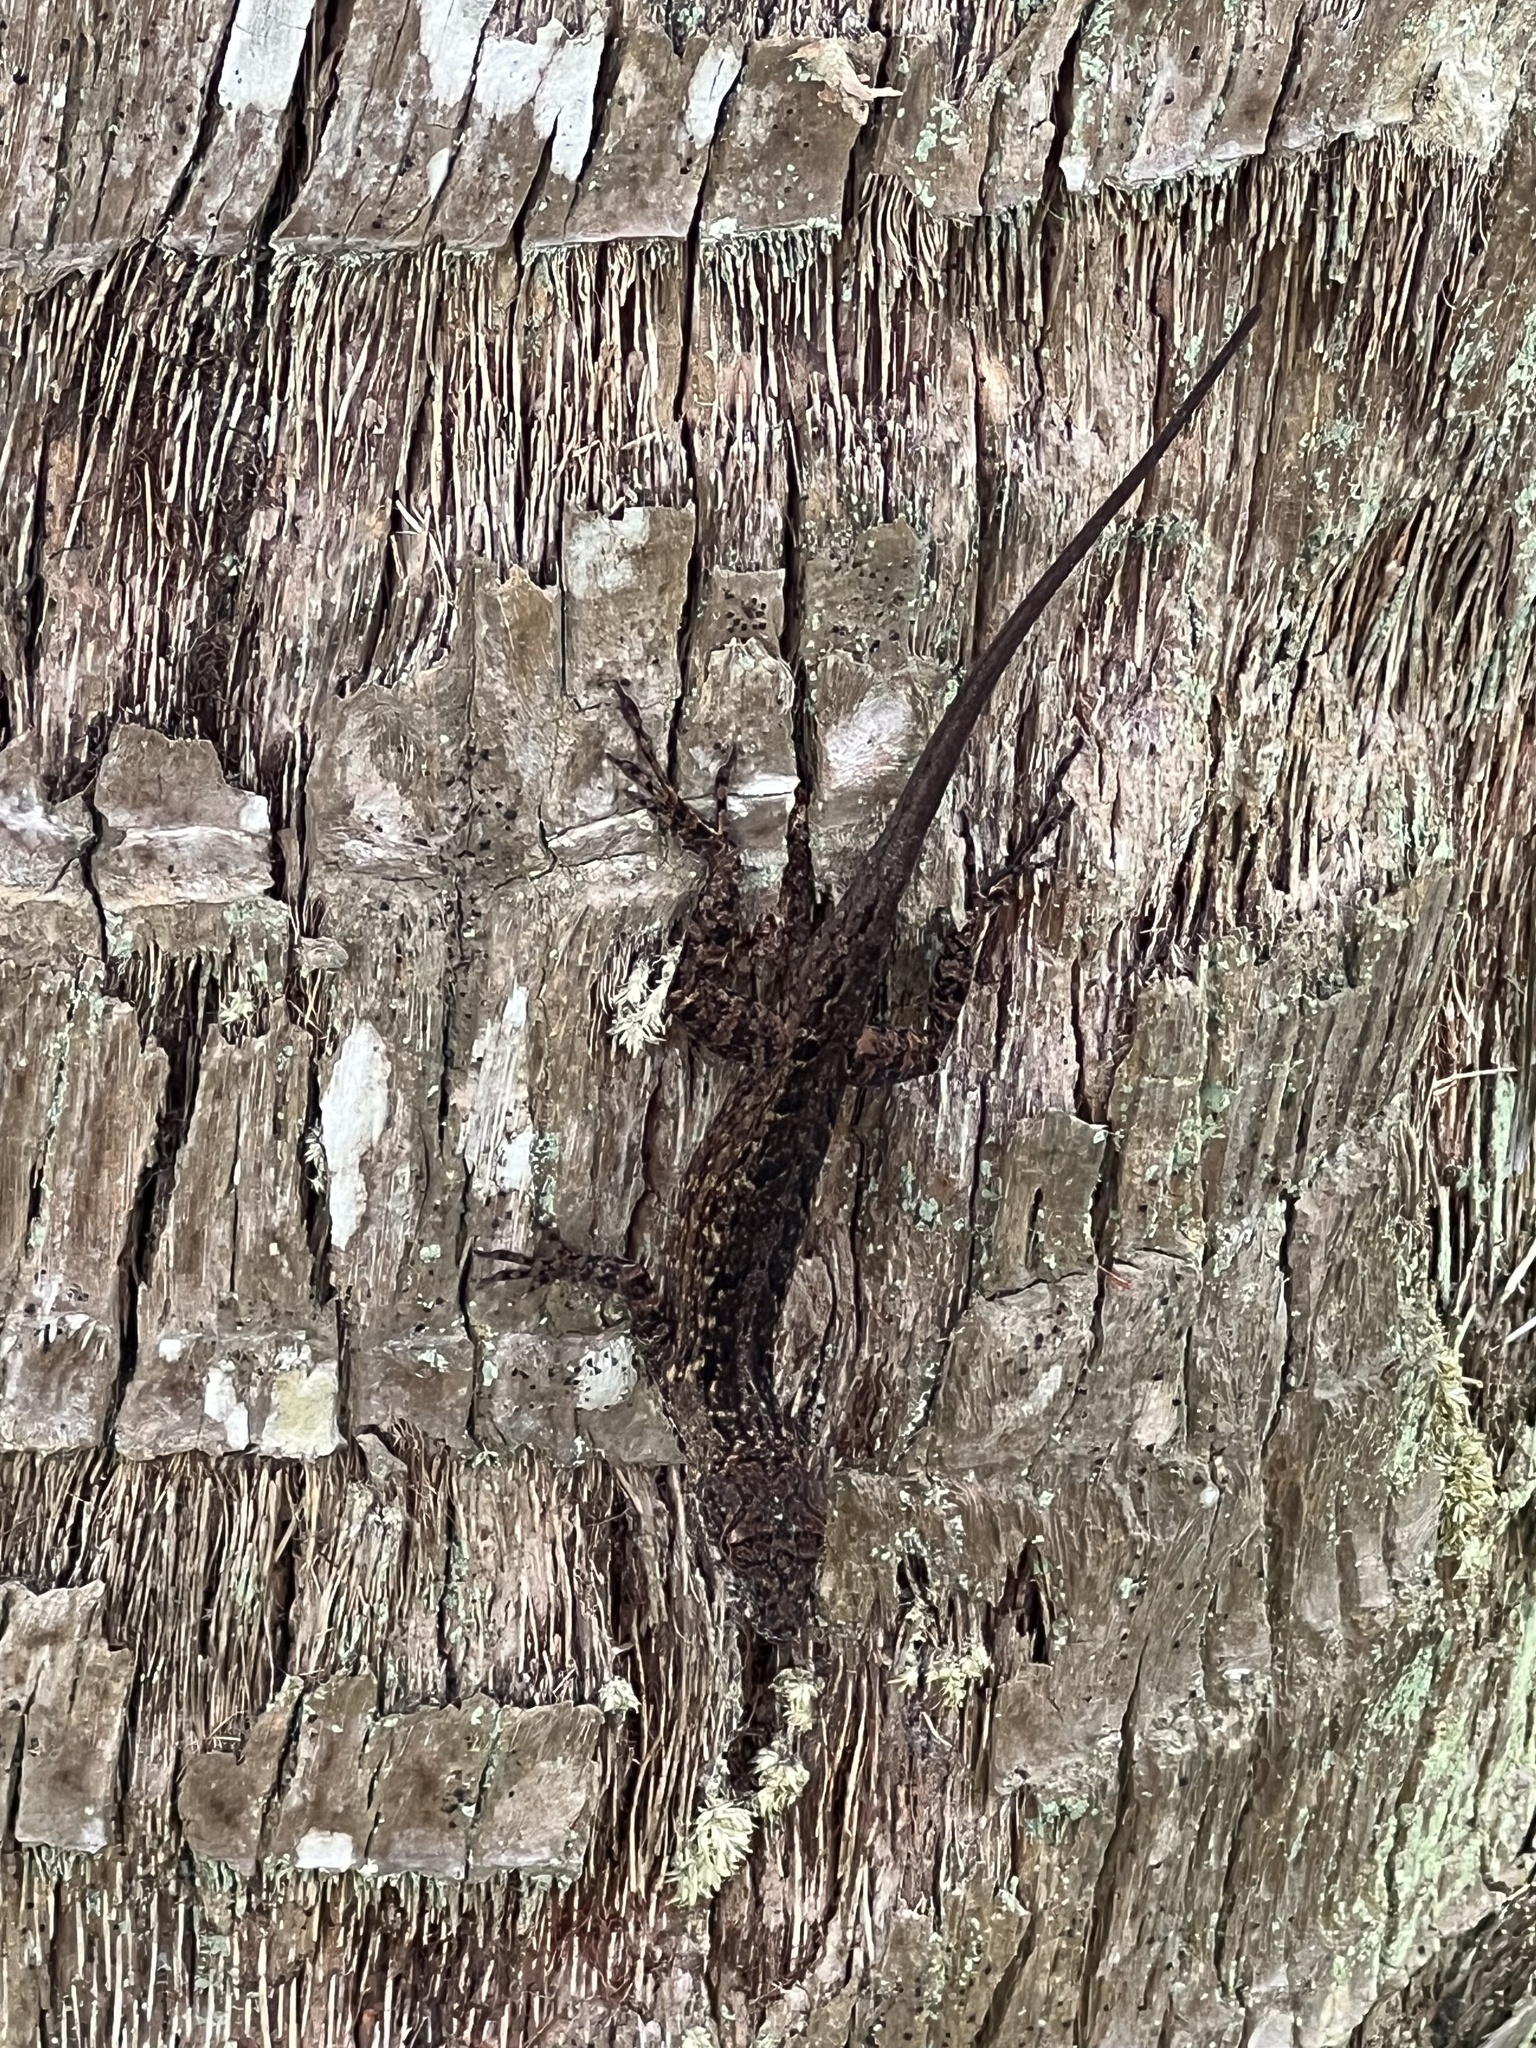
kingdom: Animalia
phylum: Chordata
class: Squamata
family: Dactyloidae
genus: Anolis
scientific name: Anolis sagrei
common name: Brown anole
